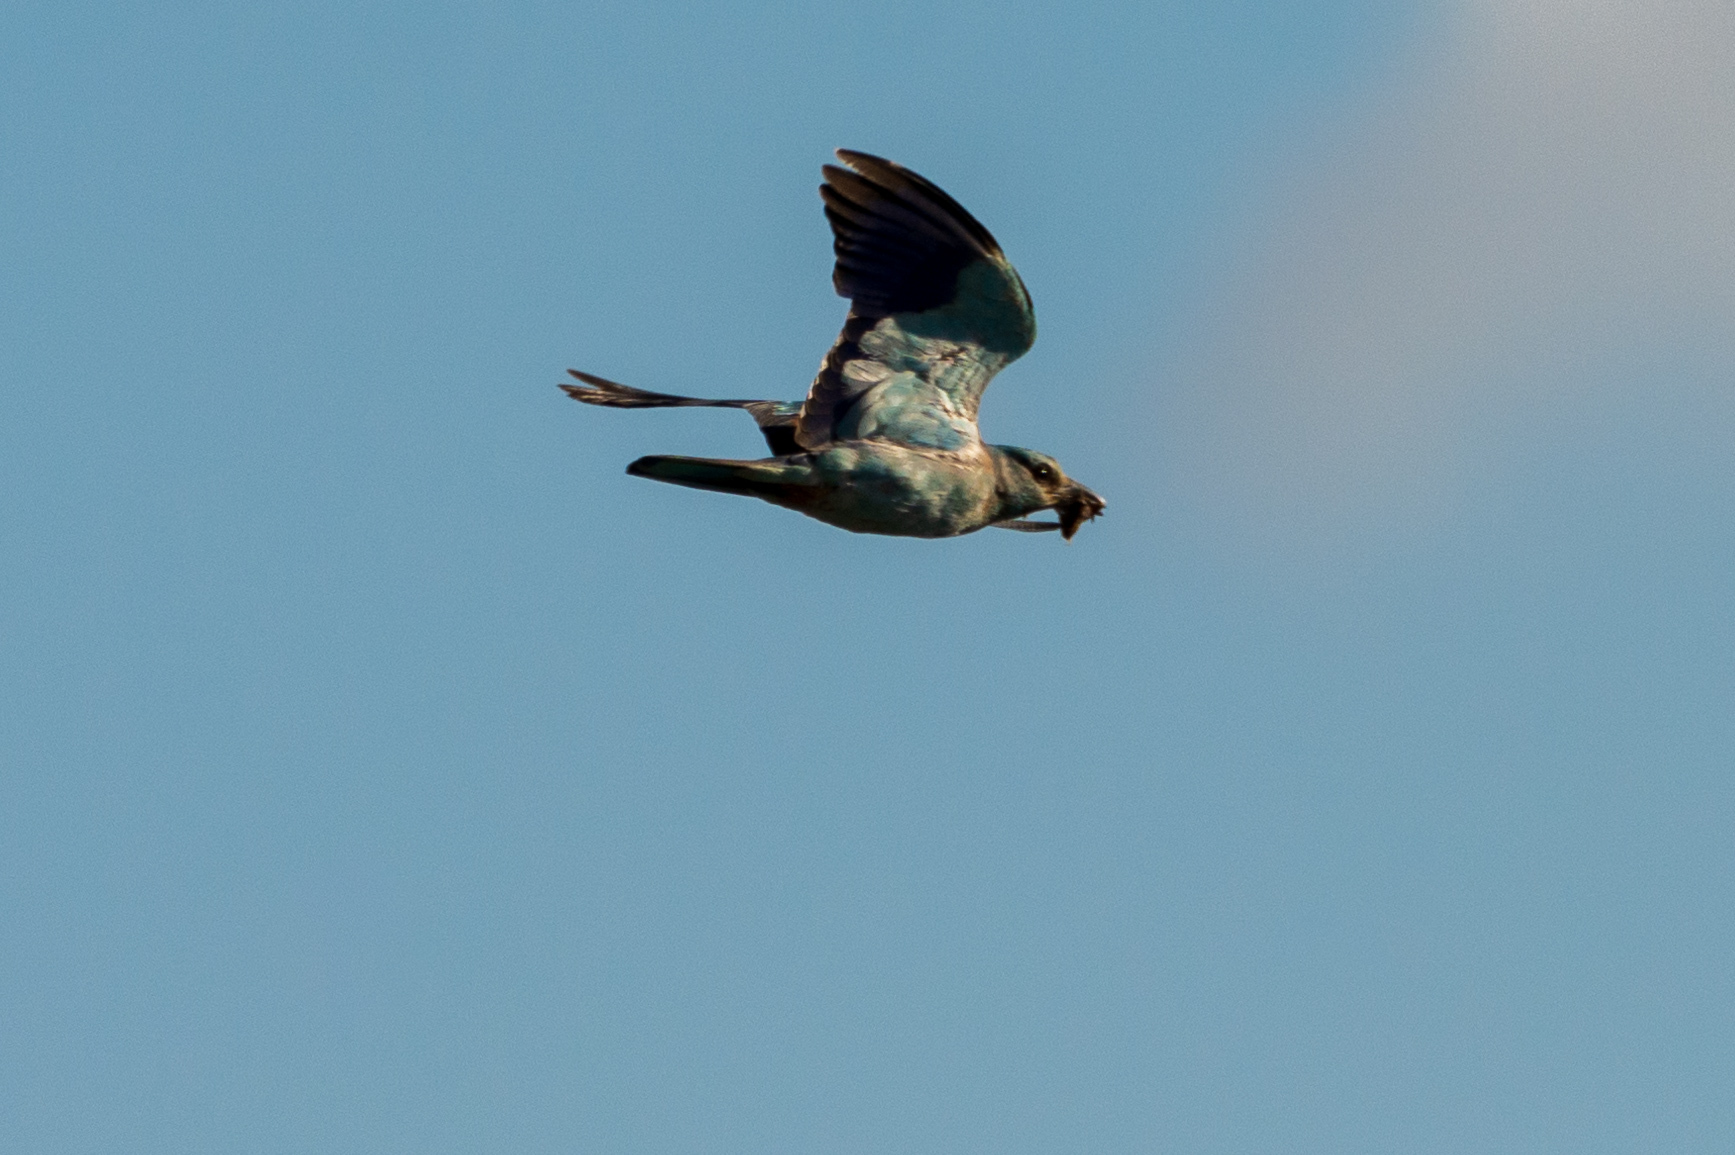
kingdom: Animalia
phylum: Chordata
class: Aves
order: Coraciiformes
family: Coraciidae
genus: Coracias
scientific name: Coracias garrulus
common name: European roller
